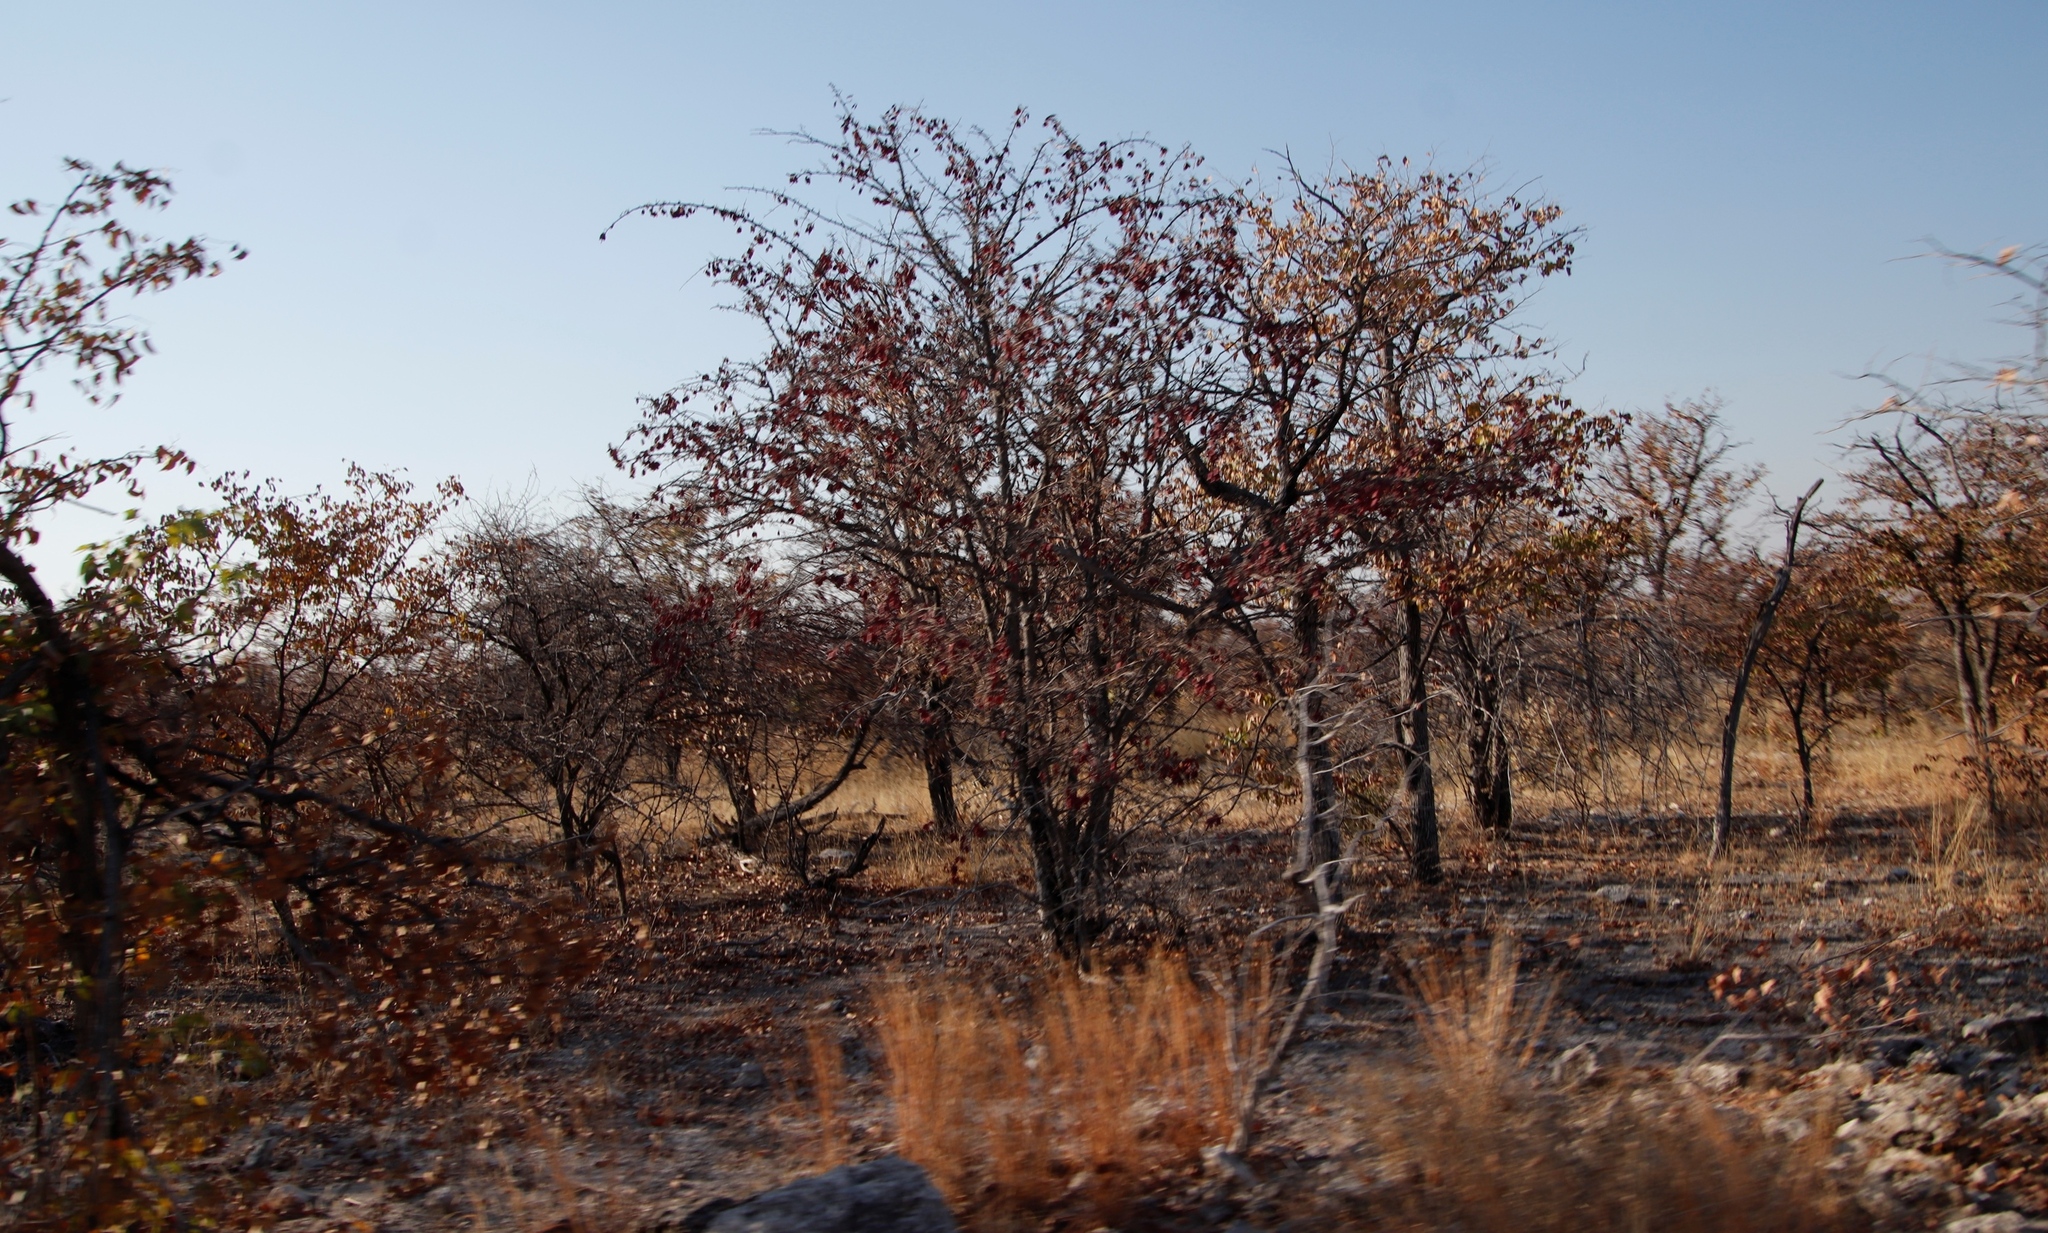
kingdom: Plantae
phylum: Tracheophyta
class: Magnoliopsida
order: Fabales
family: Fabaceae
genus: Colophospermum
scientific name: Colophospermum mopane
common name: Mopane
